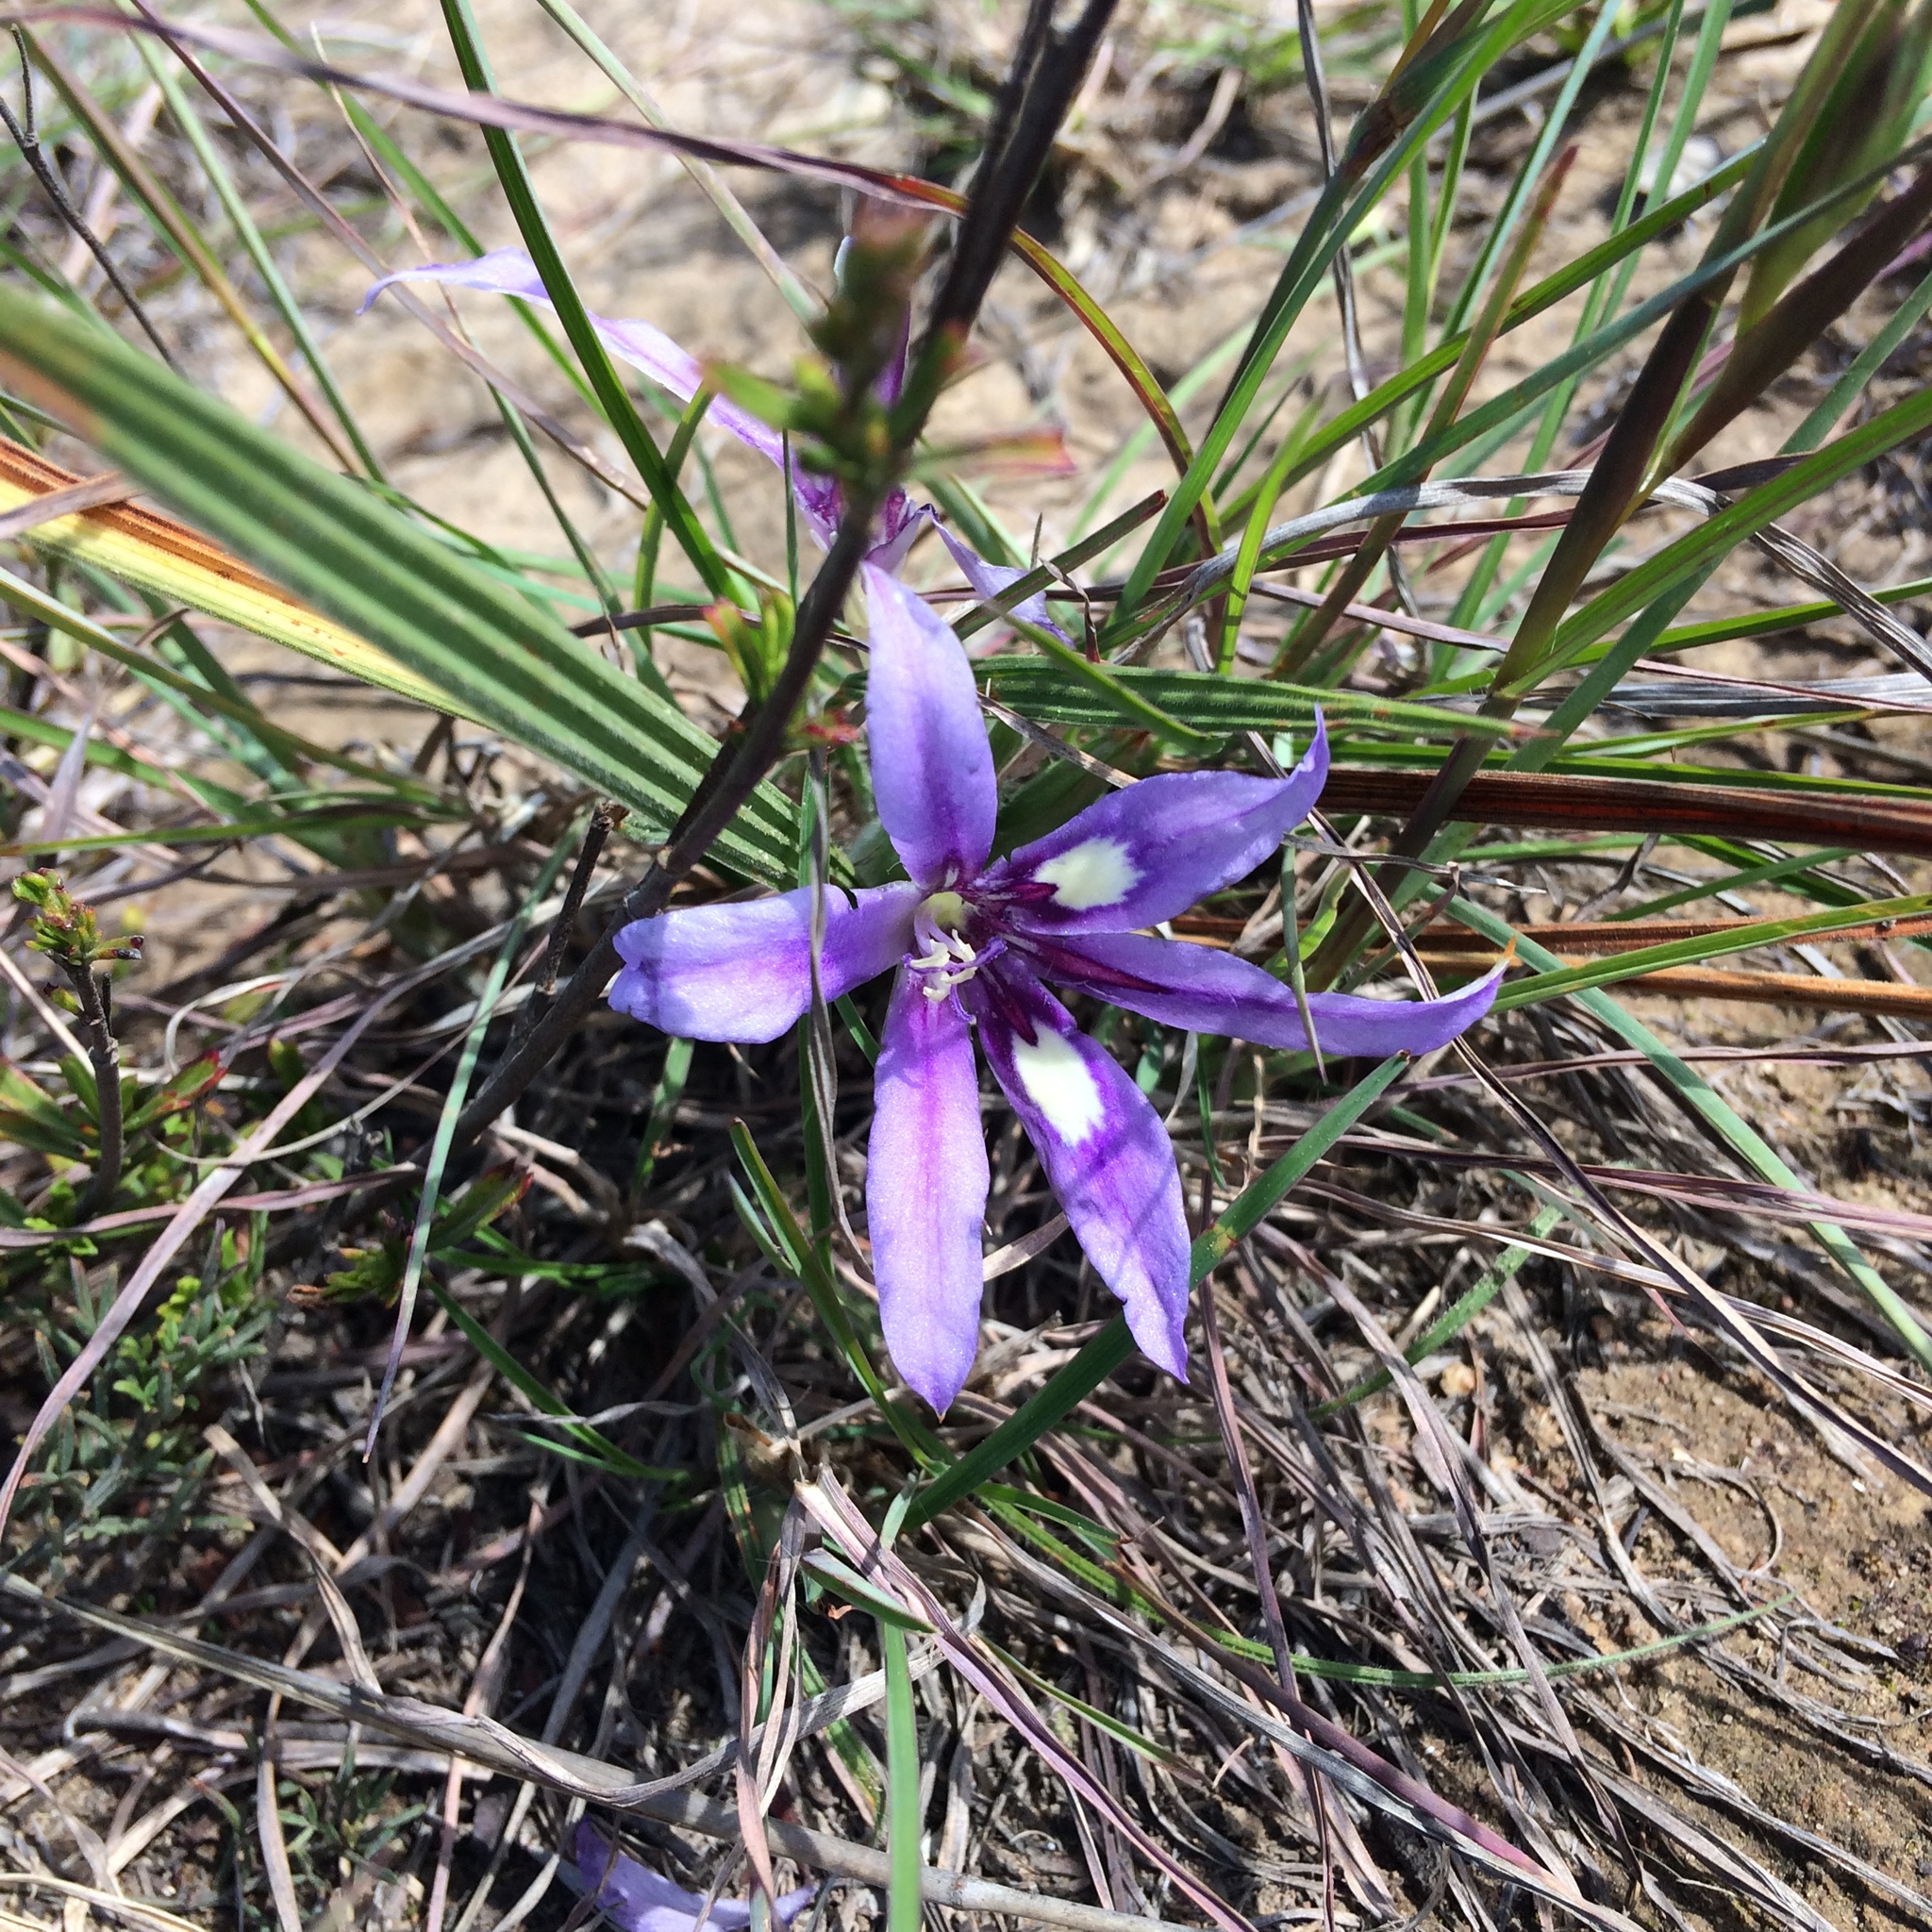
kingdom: Plantae
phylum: Tracheophyta
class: Liliopsida
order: Asparagales
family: Iridaceae
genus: Babiana
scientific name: Babiana sambucina
